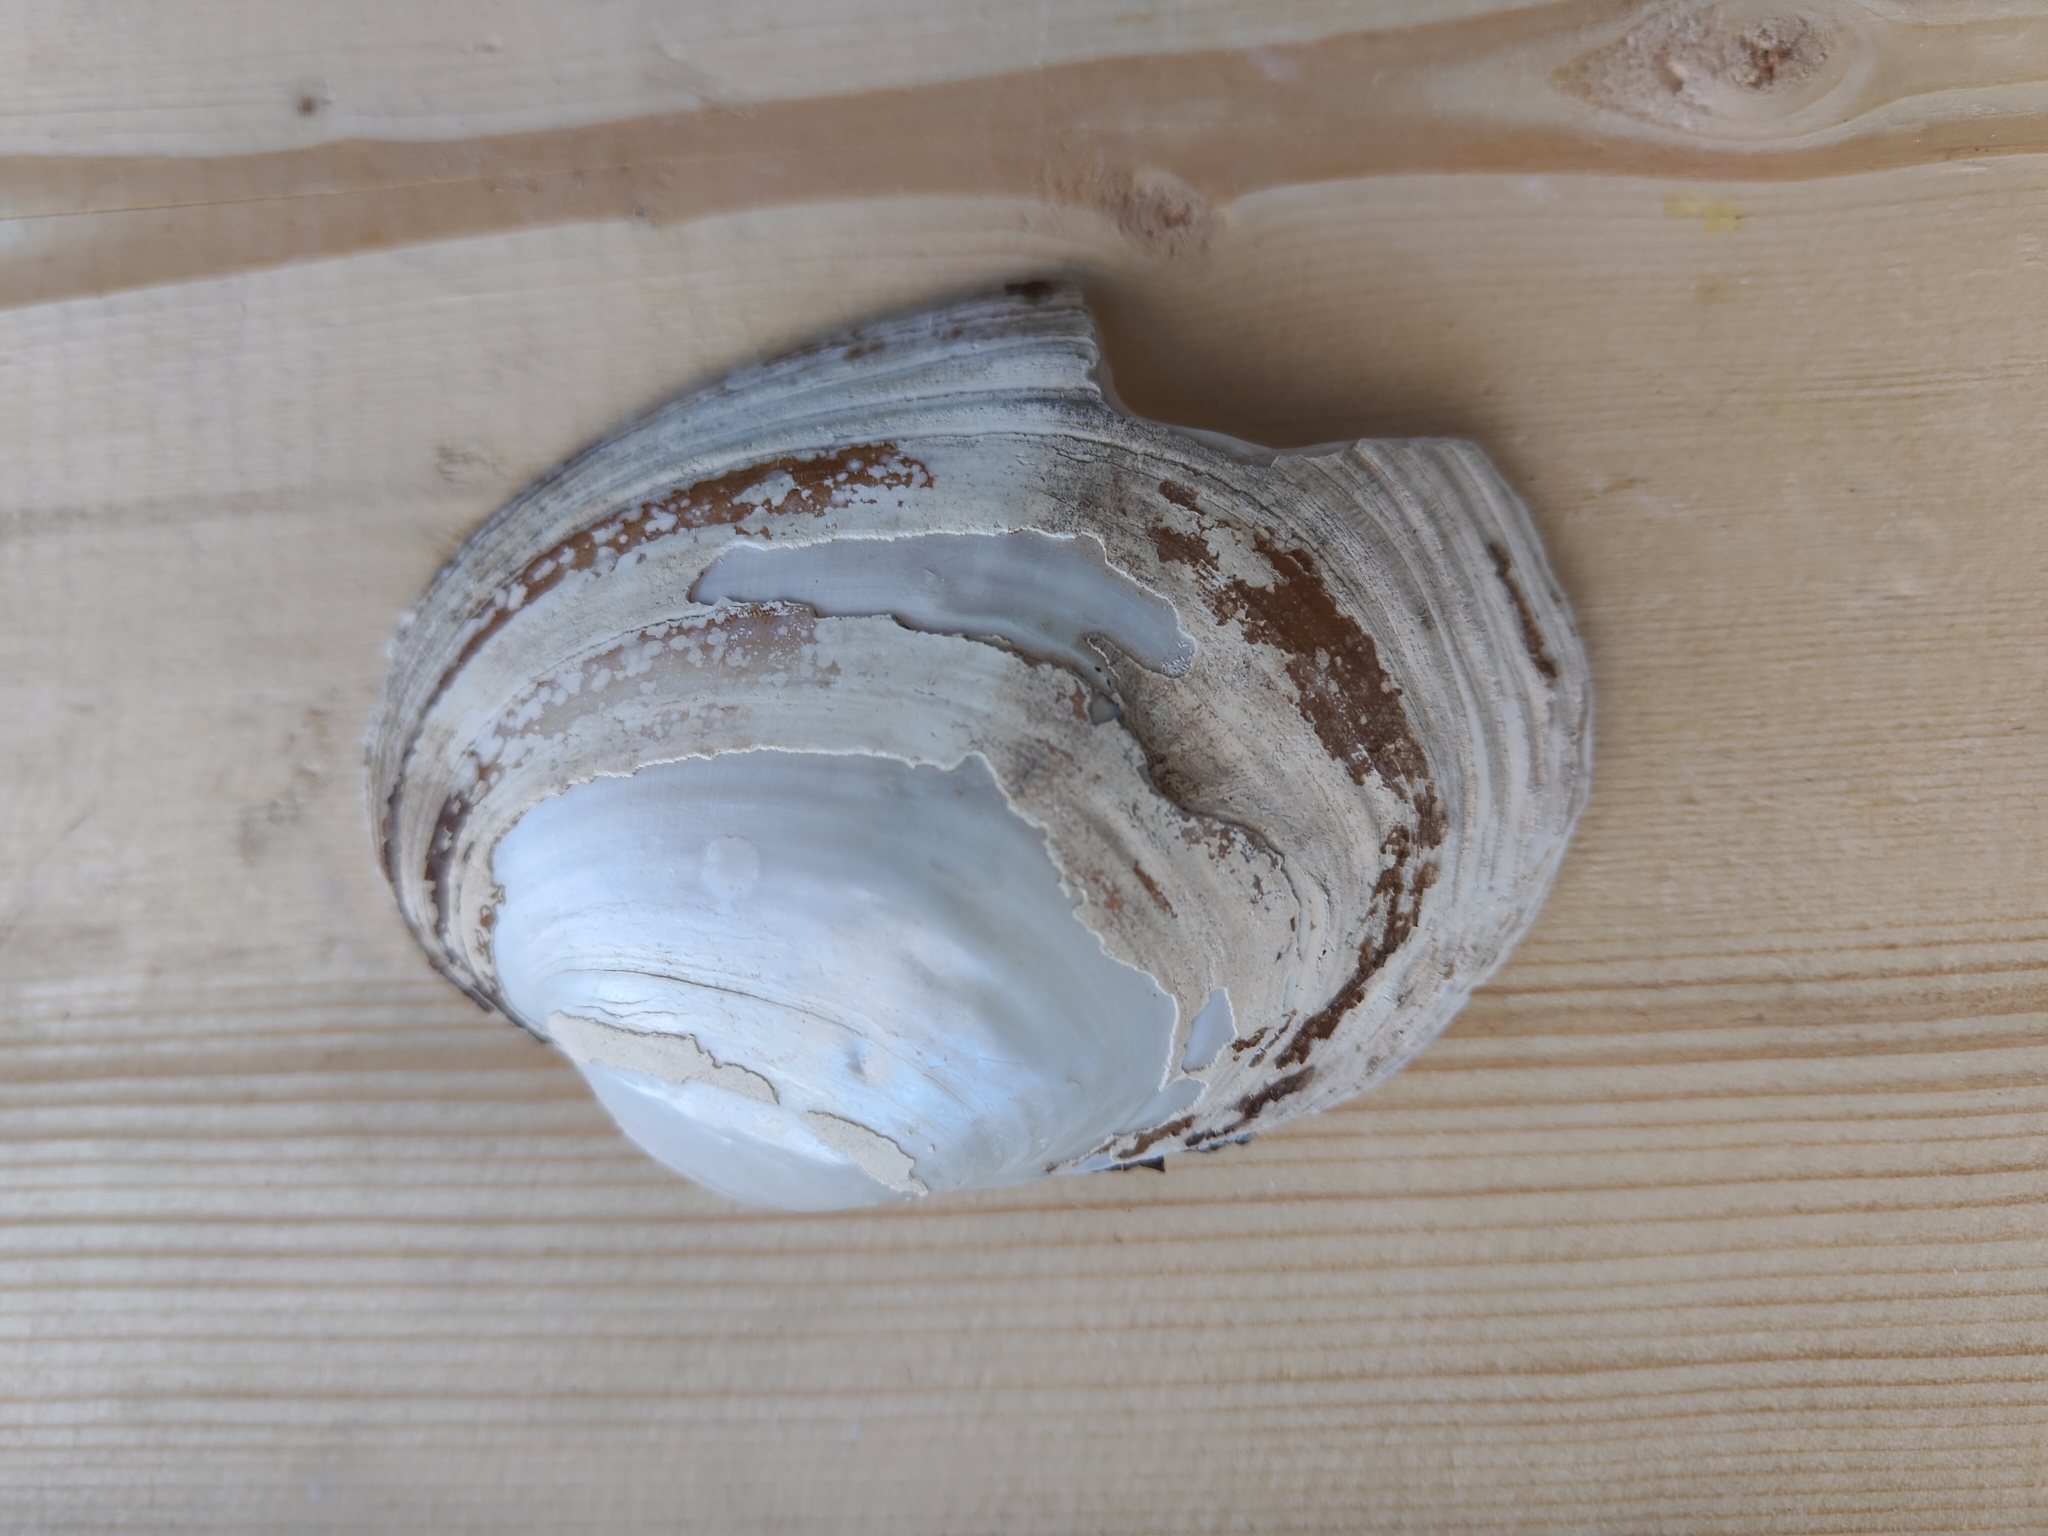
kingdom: Animalia
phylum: Mollusca
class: Bivalvia
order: Unionida
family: Unionidae
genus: Lampsilis
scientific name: Lampsilis cardium
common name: Plain pocketbook
